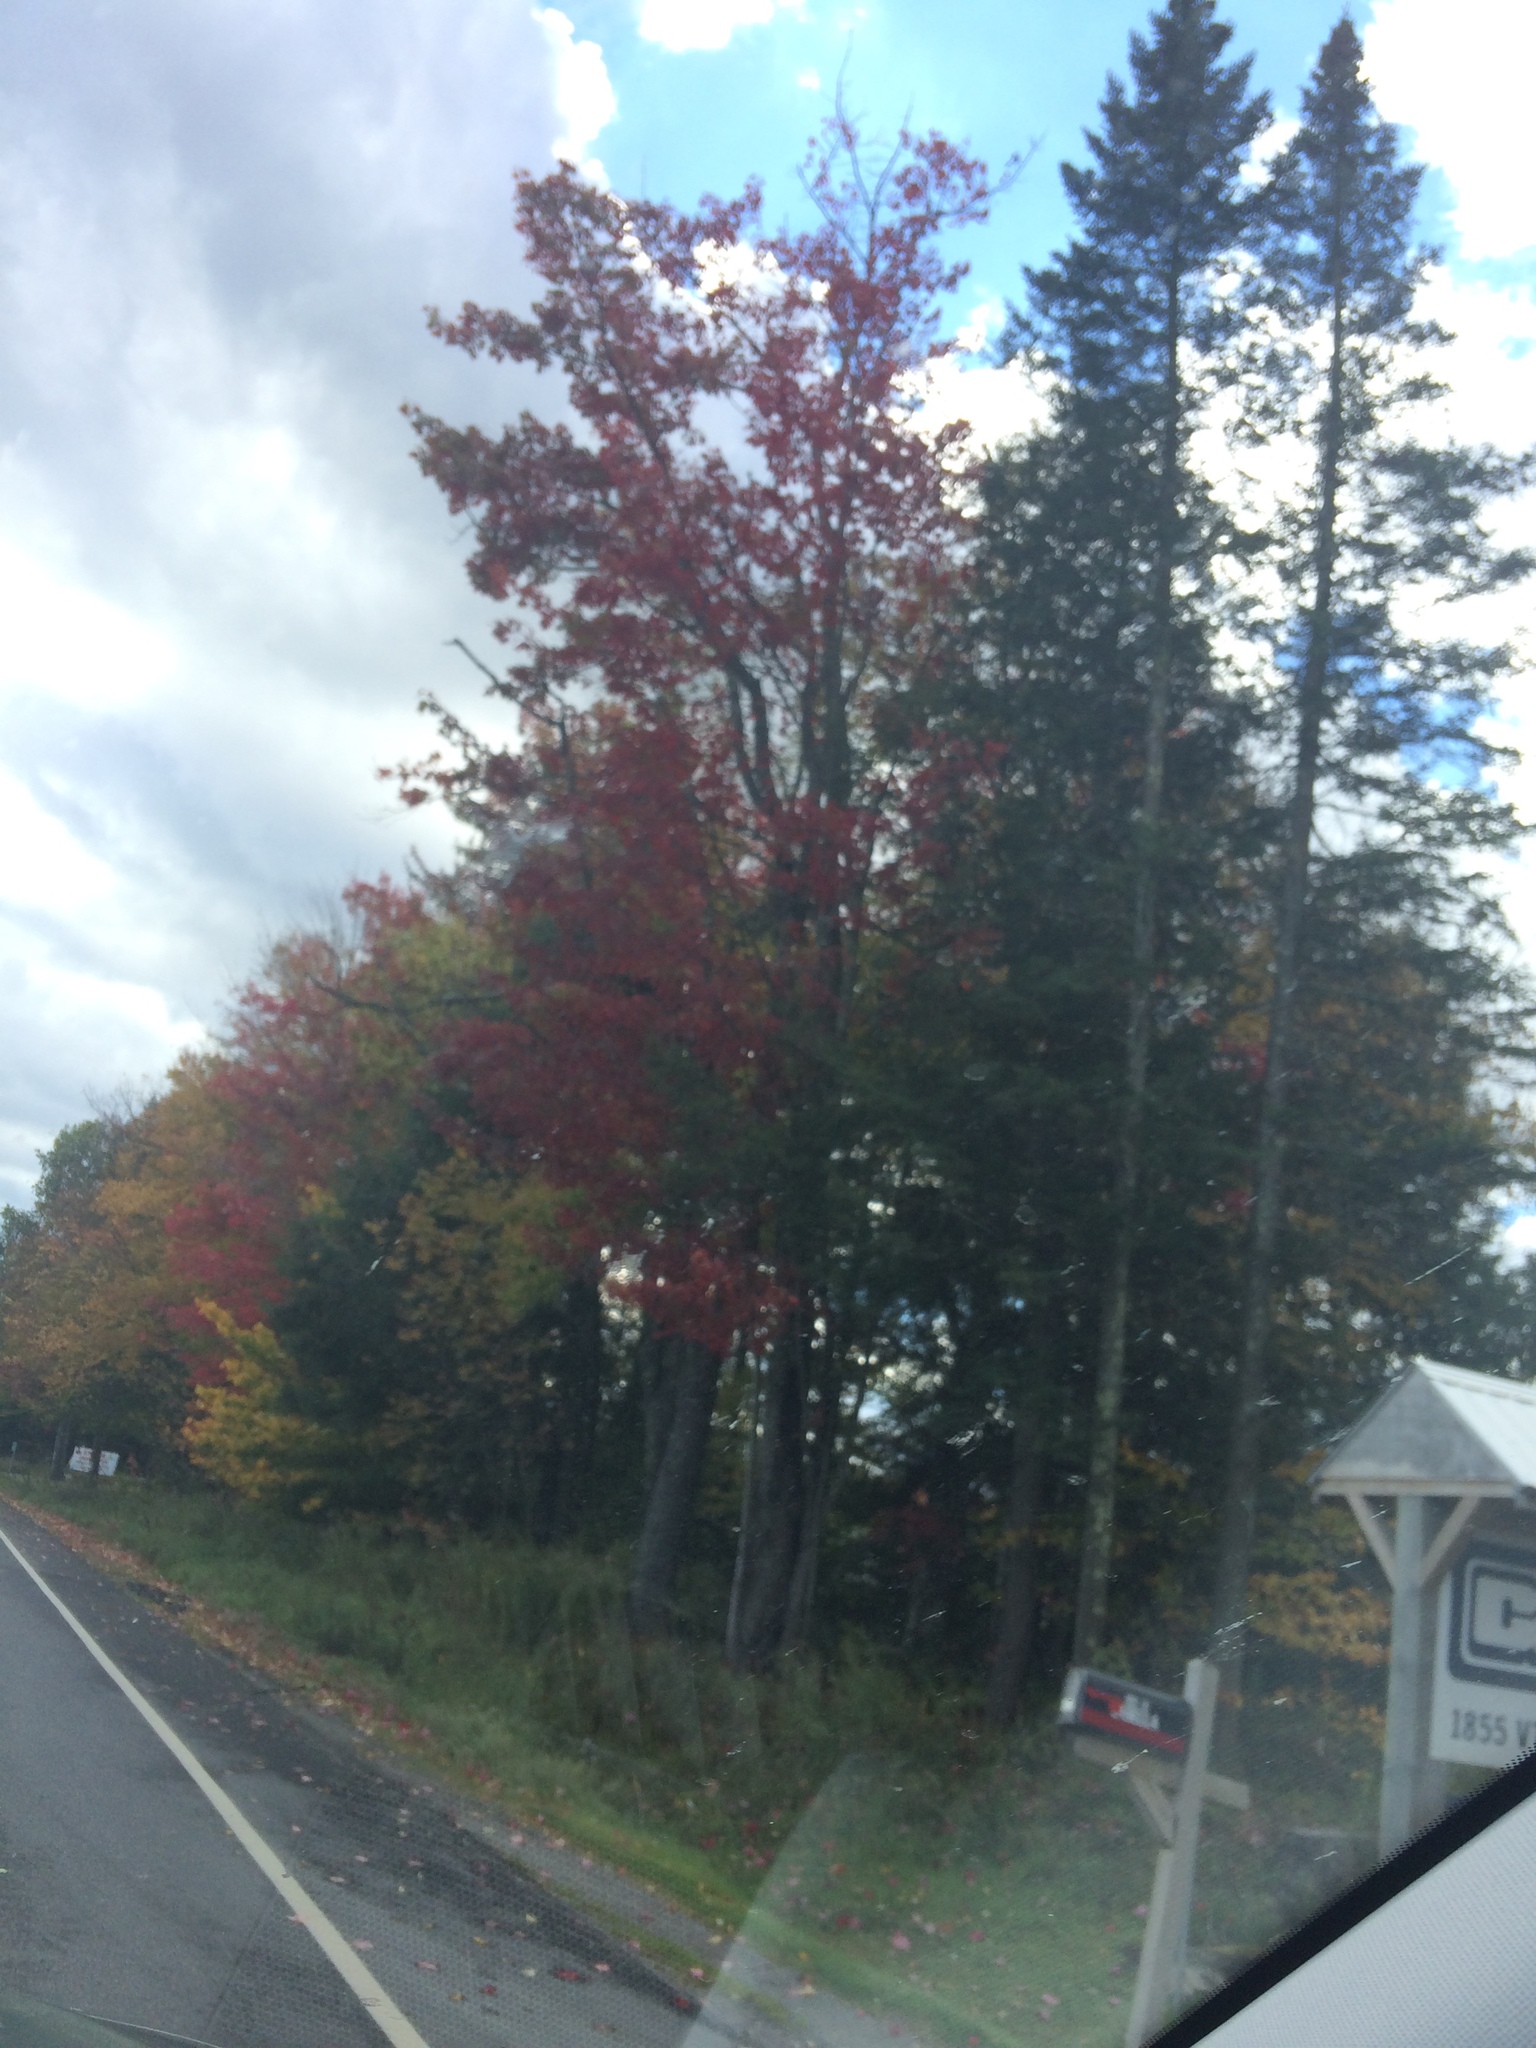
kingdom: Plantae
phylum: Tracheophyta
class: Magnoliopsida
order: Sapindales
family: Sapindaceae
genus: Acer
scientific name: Acer rubrum
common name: Red maple
